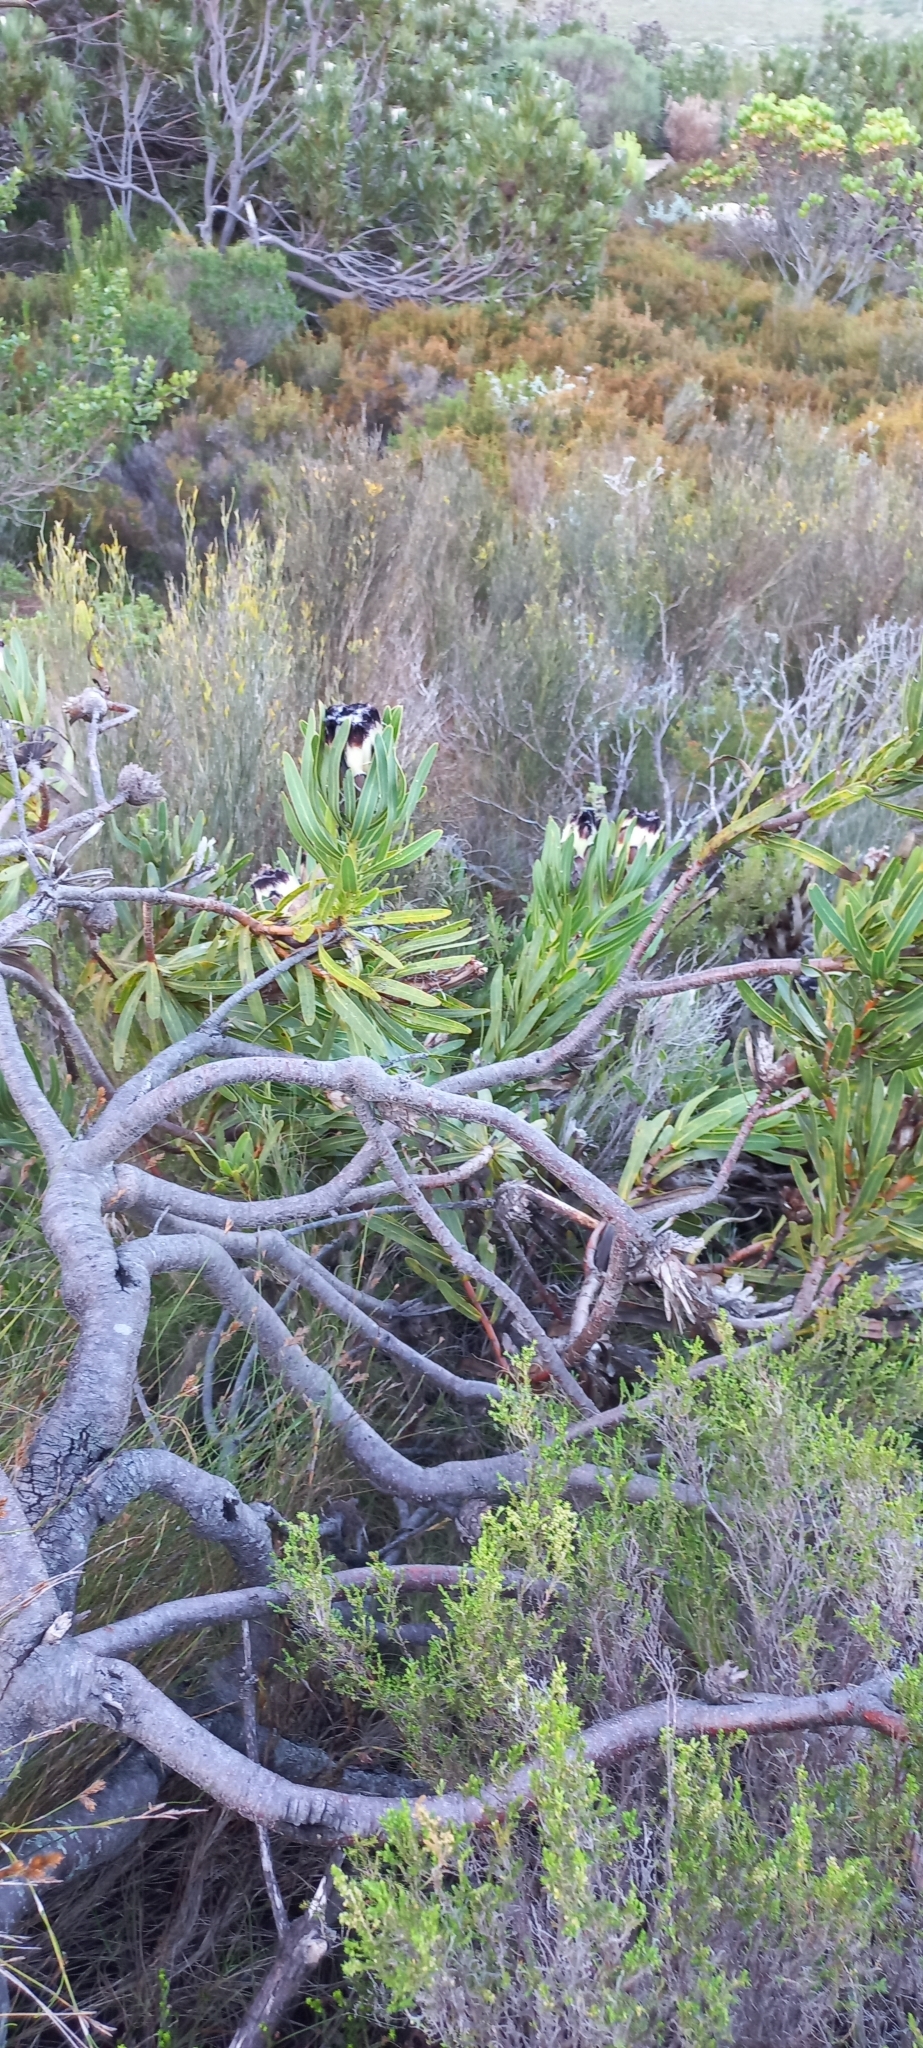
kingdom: Plantae
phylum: Tracheophyta
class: Magnoliopsida
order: Proteales
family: Proteaceae
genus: Protea
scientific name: Protea lepidocarpodendron
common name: Black-bearded protea
